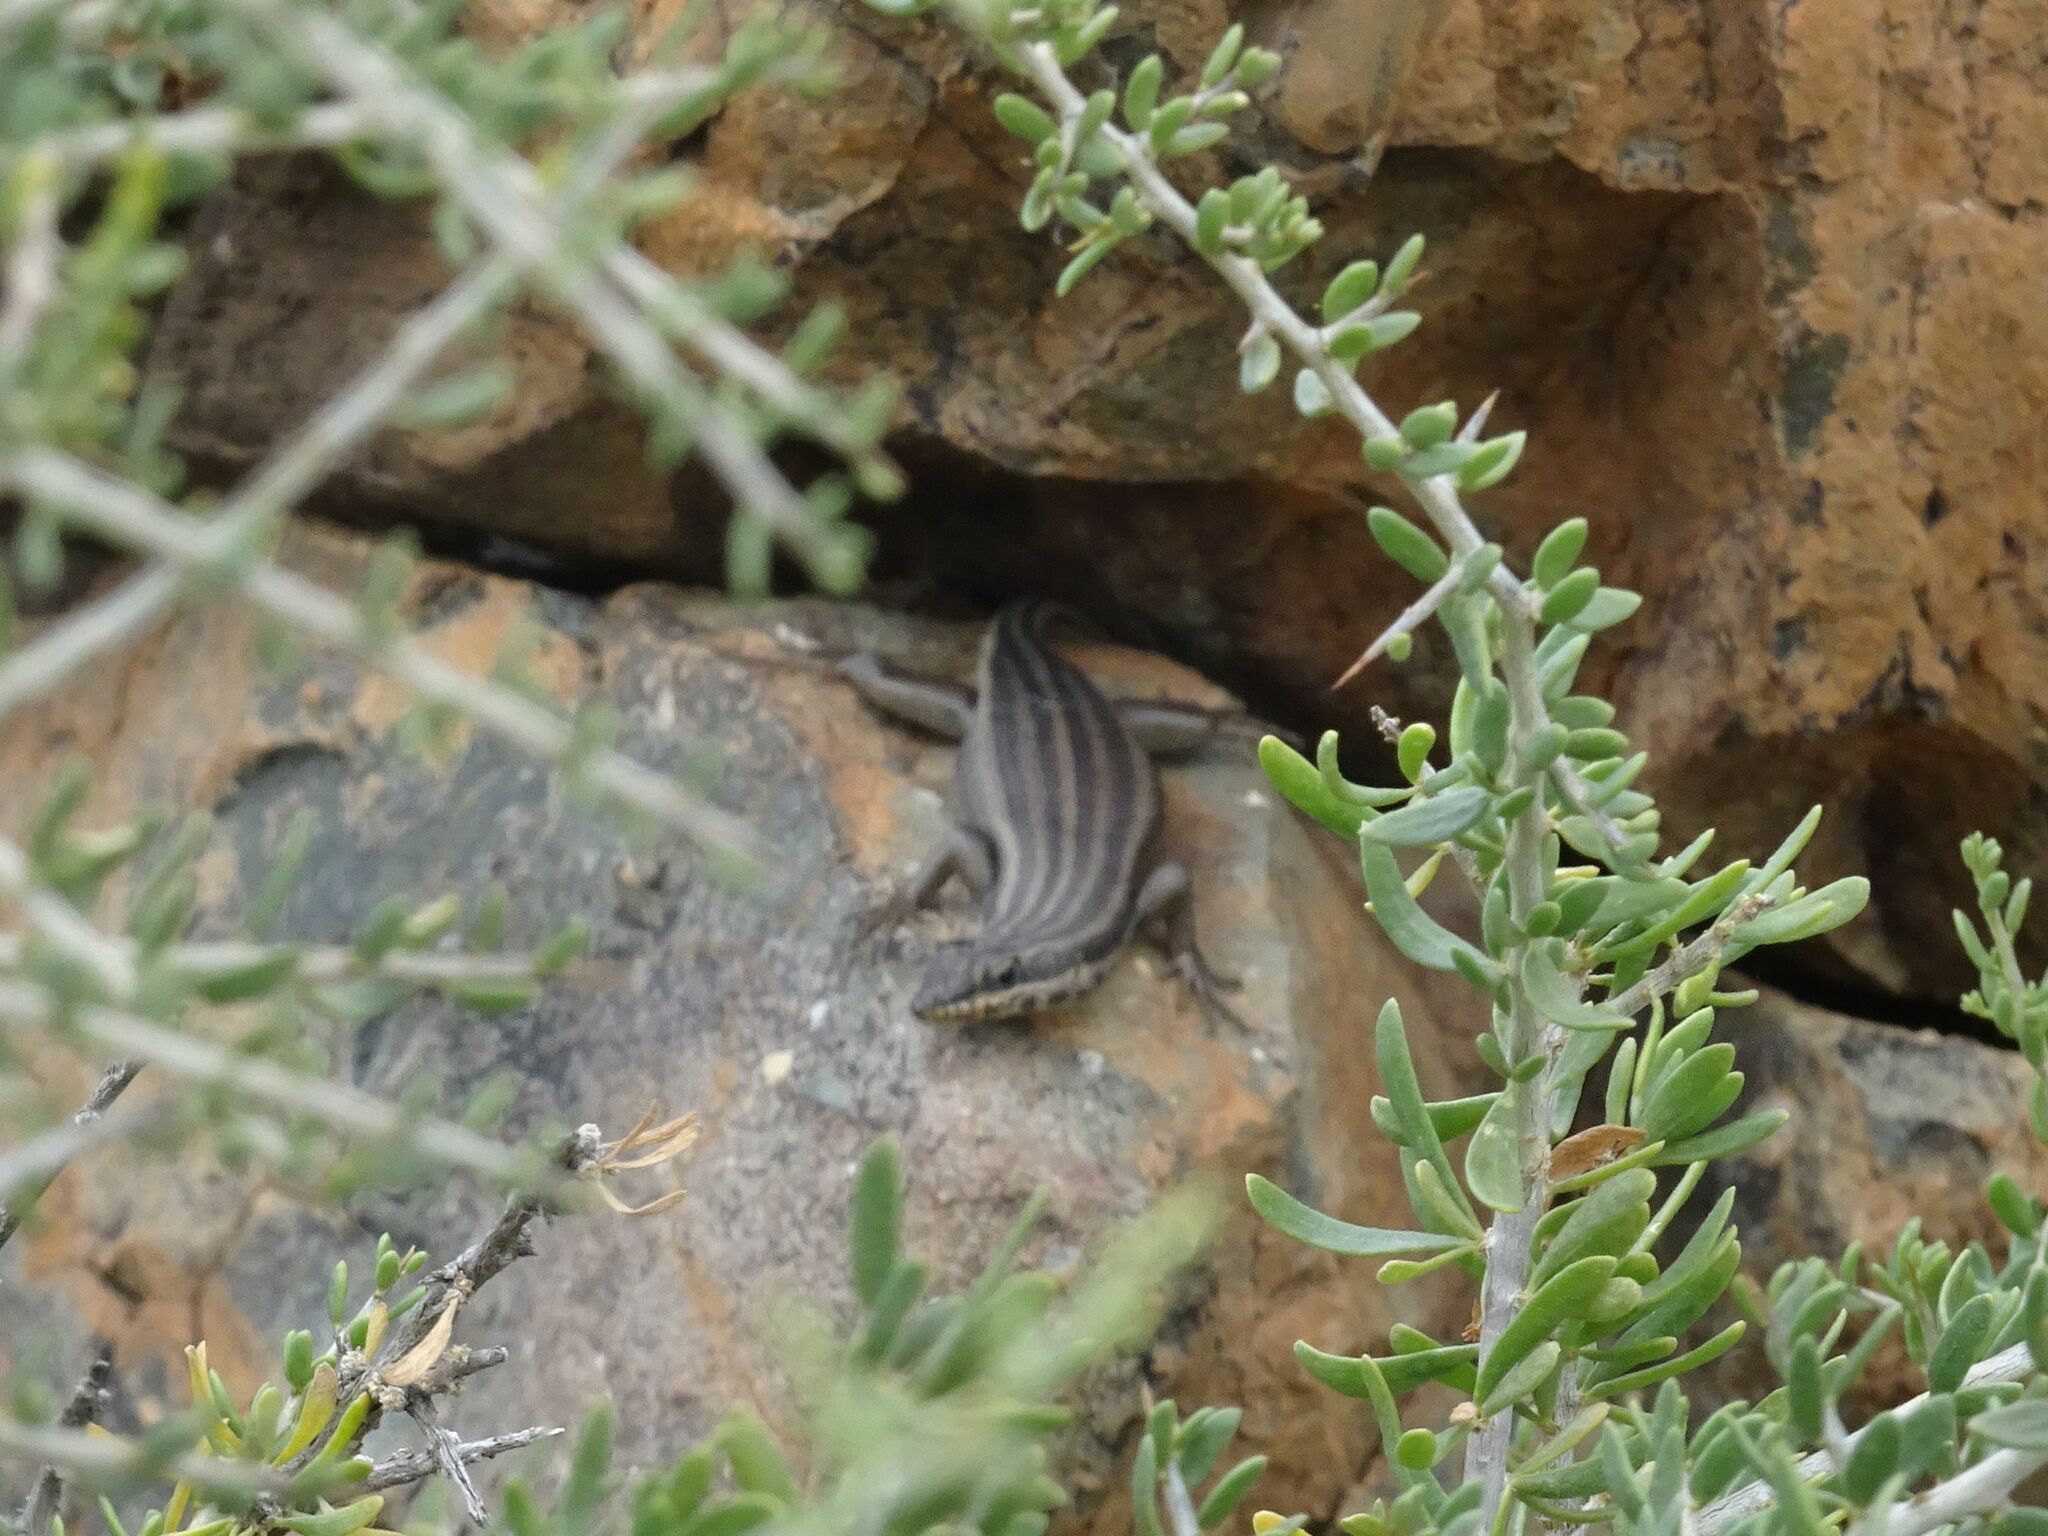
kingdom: Animalia
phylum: Chordata
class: Squamata
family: Scincidae
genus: Trachylepis
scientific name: Trachylepis sulcata
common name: Western rock skink
